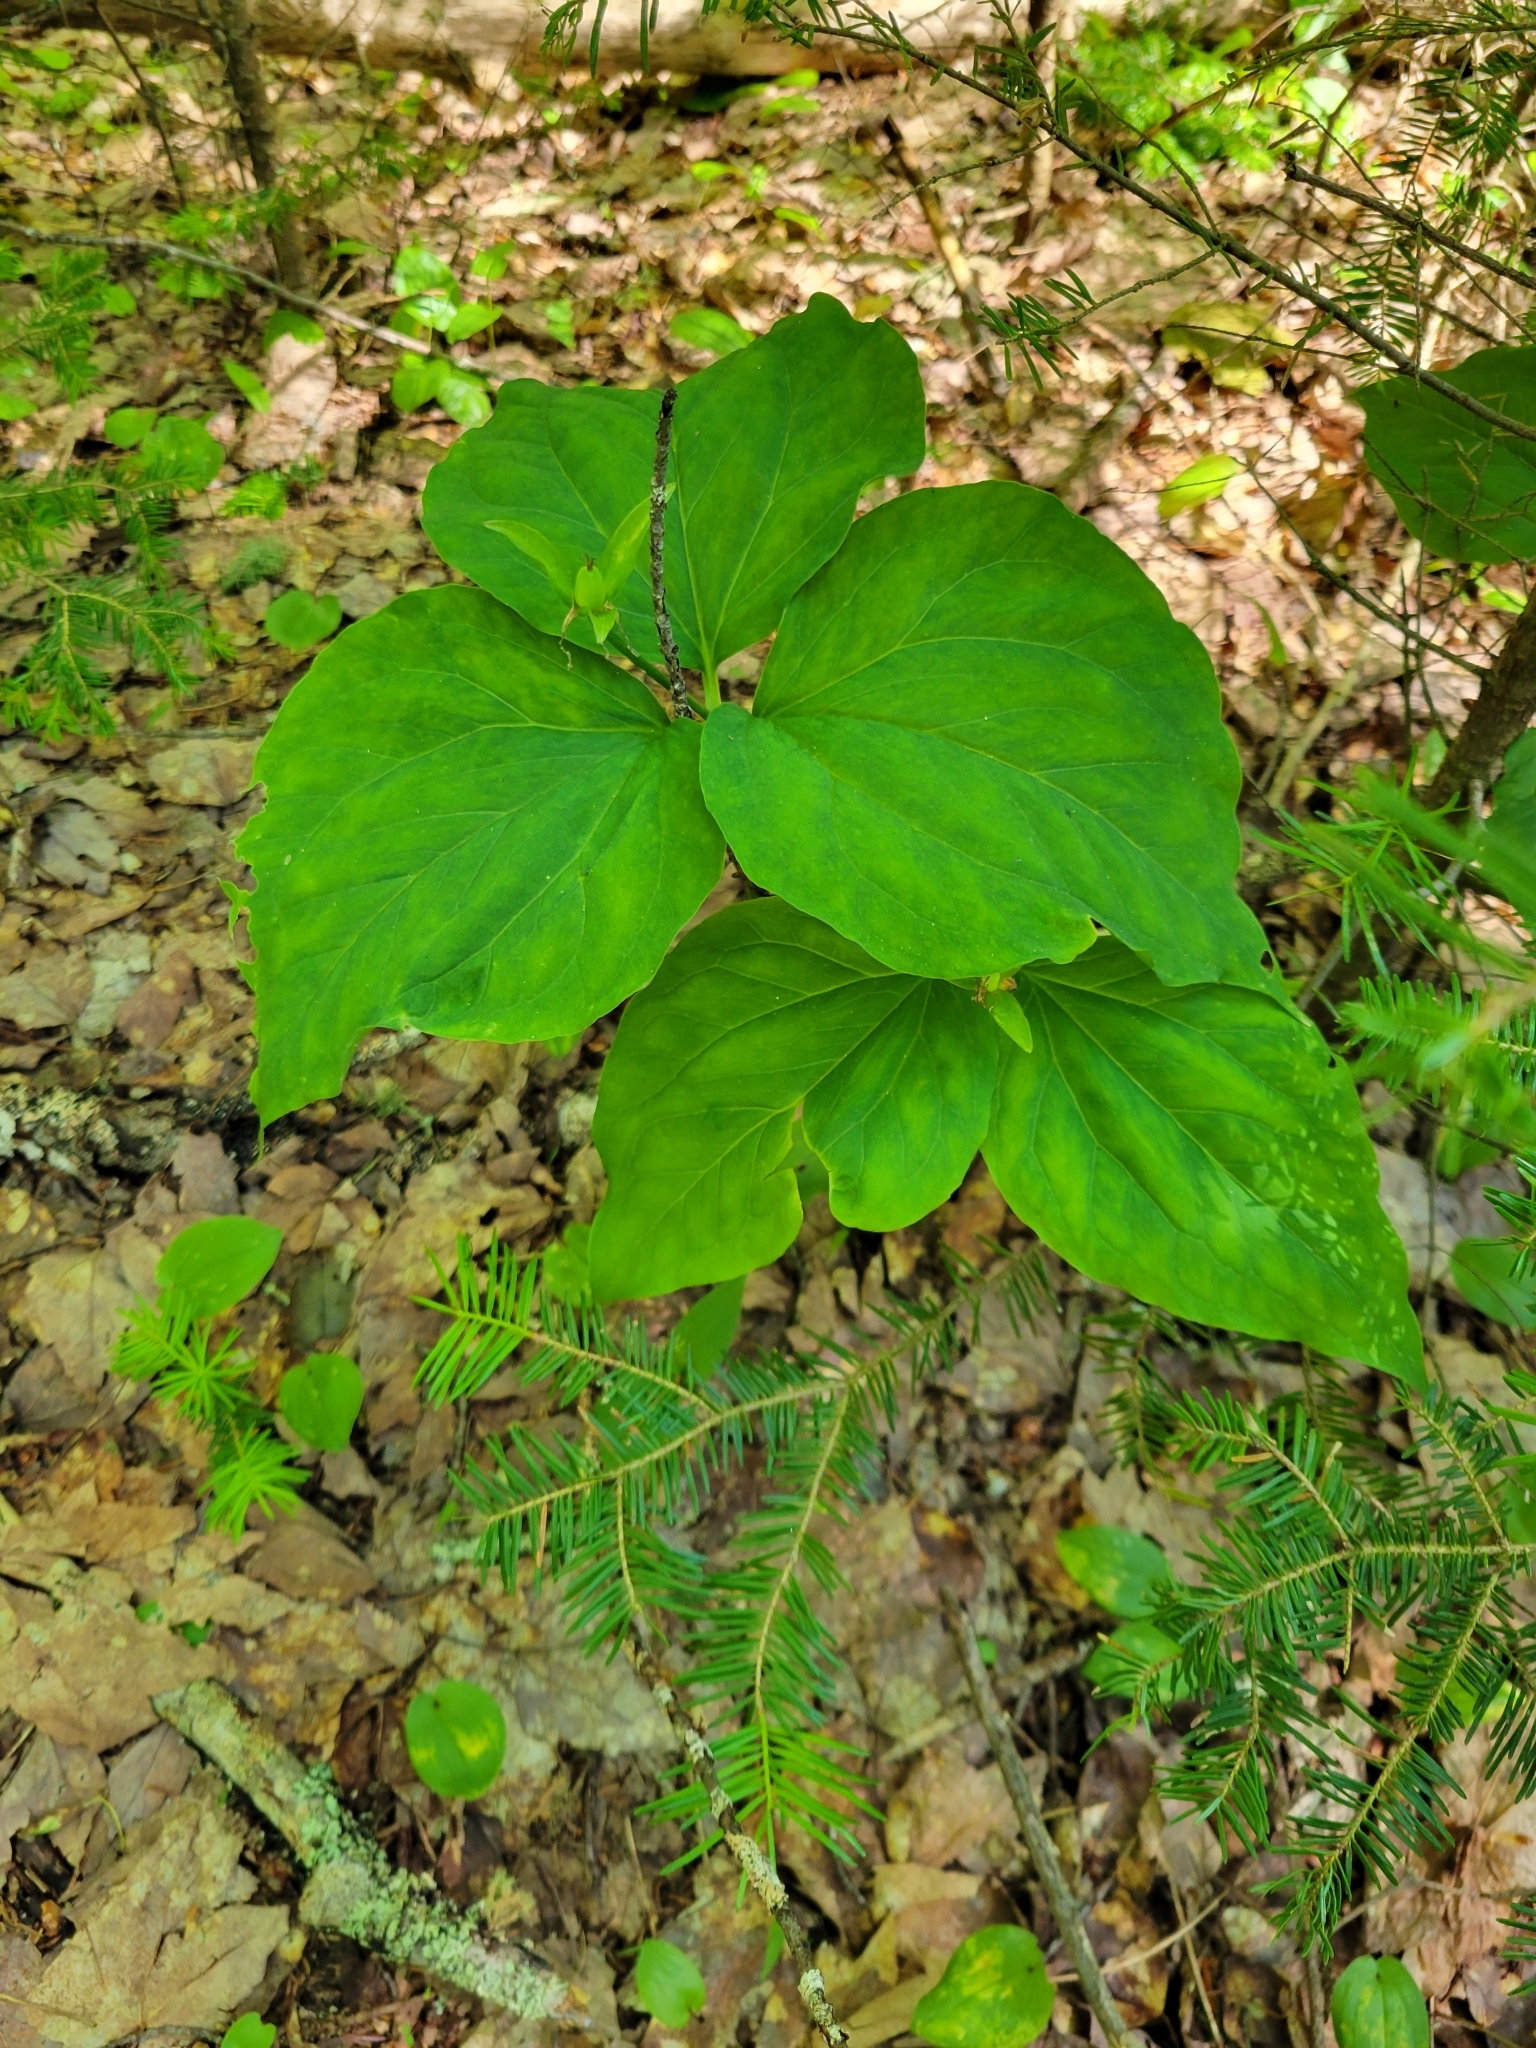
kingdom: Plantae
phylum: Tracheophyta
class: Liliopsida
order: Liliales
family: Melanthiaceae
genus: Trillium
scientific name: Trillium undulatum
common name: Paint trillium
